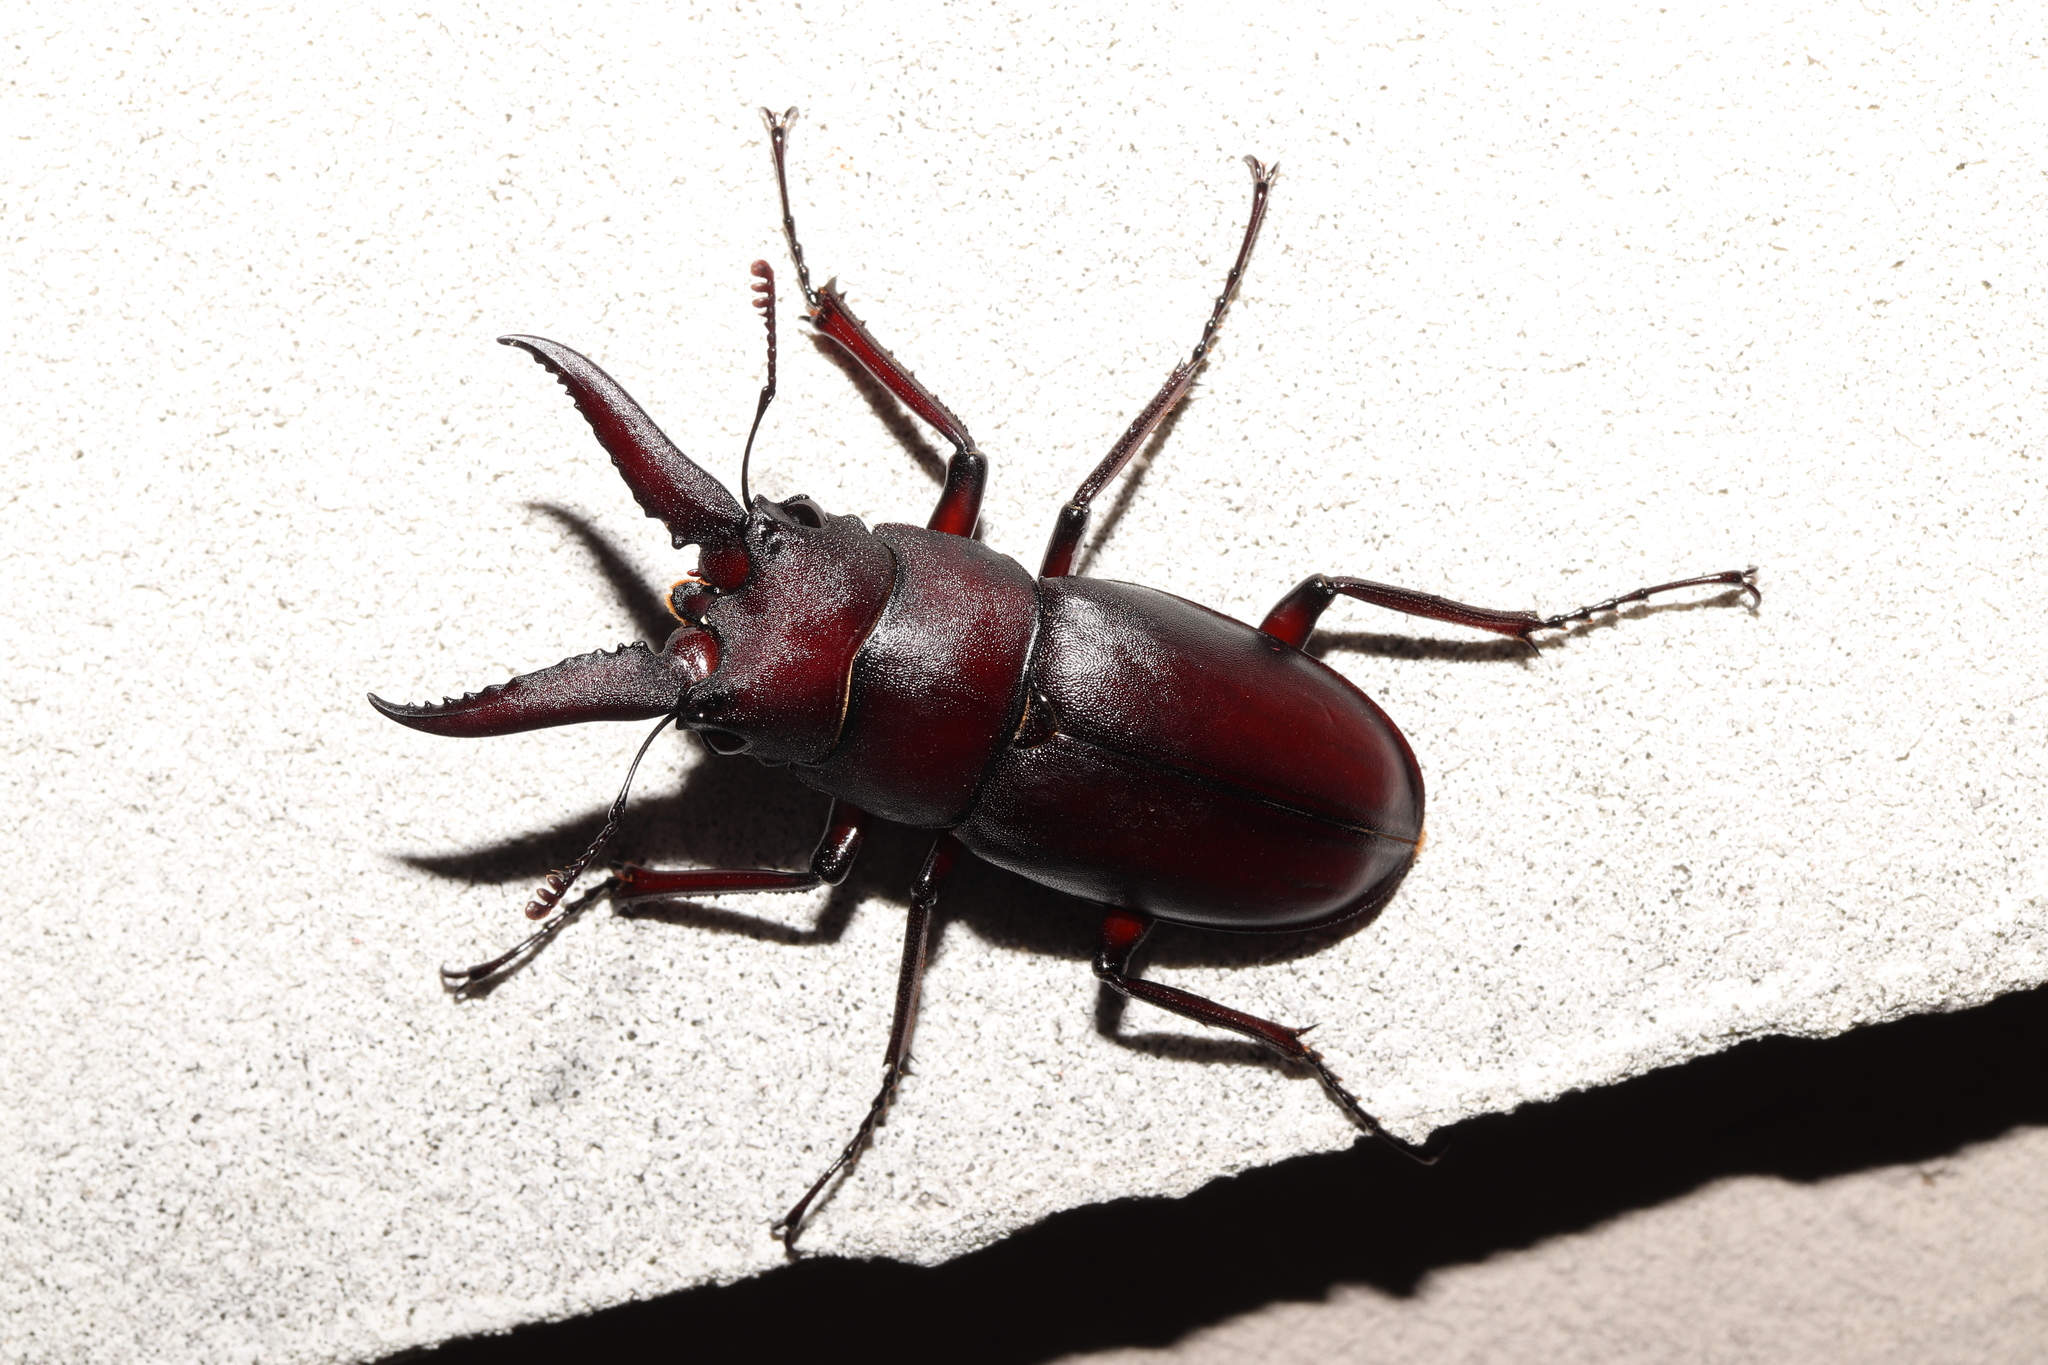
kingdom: Animalia
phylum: Arthropoda
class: Insecta
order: Coleoptera
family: Lucanidae
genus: Prosopocoilus
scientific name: Prosopocoilus inclinatus
